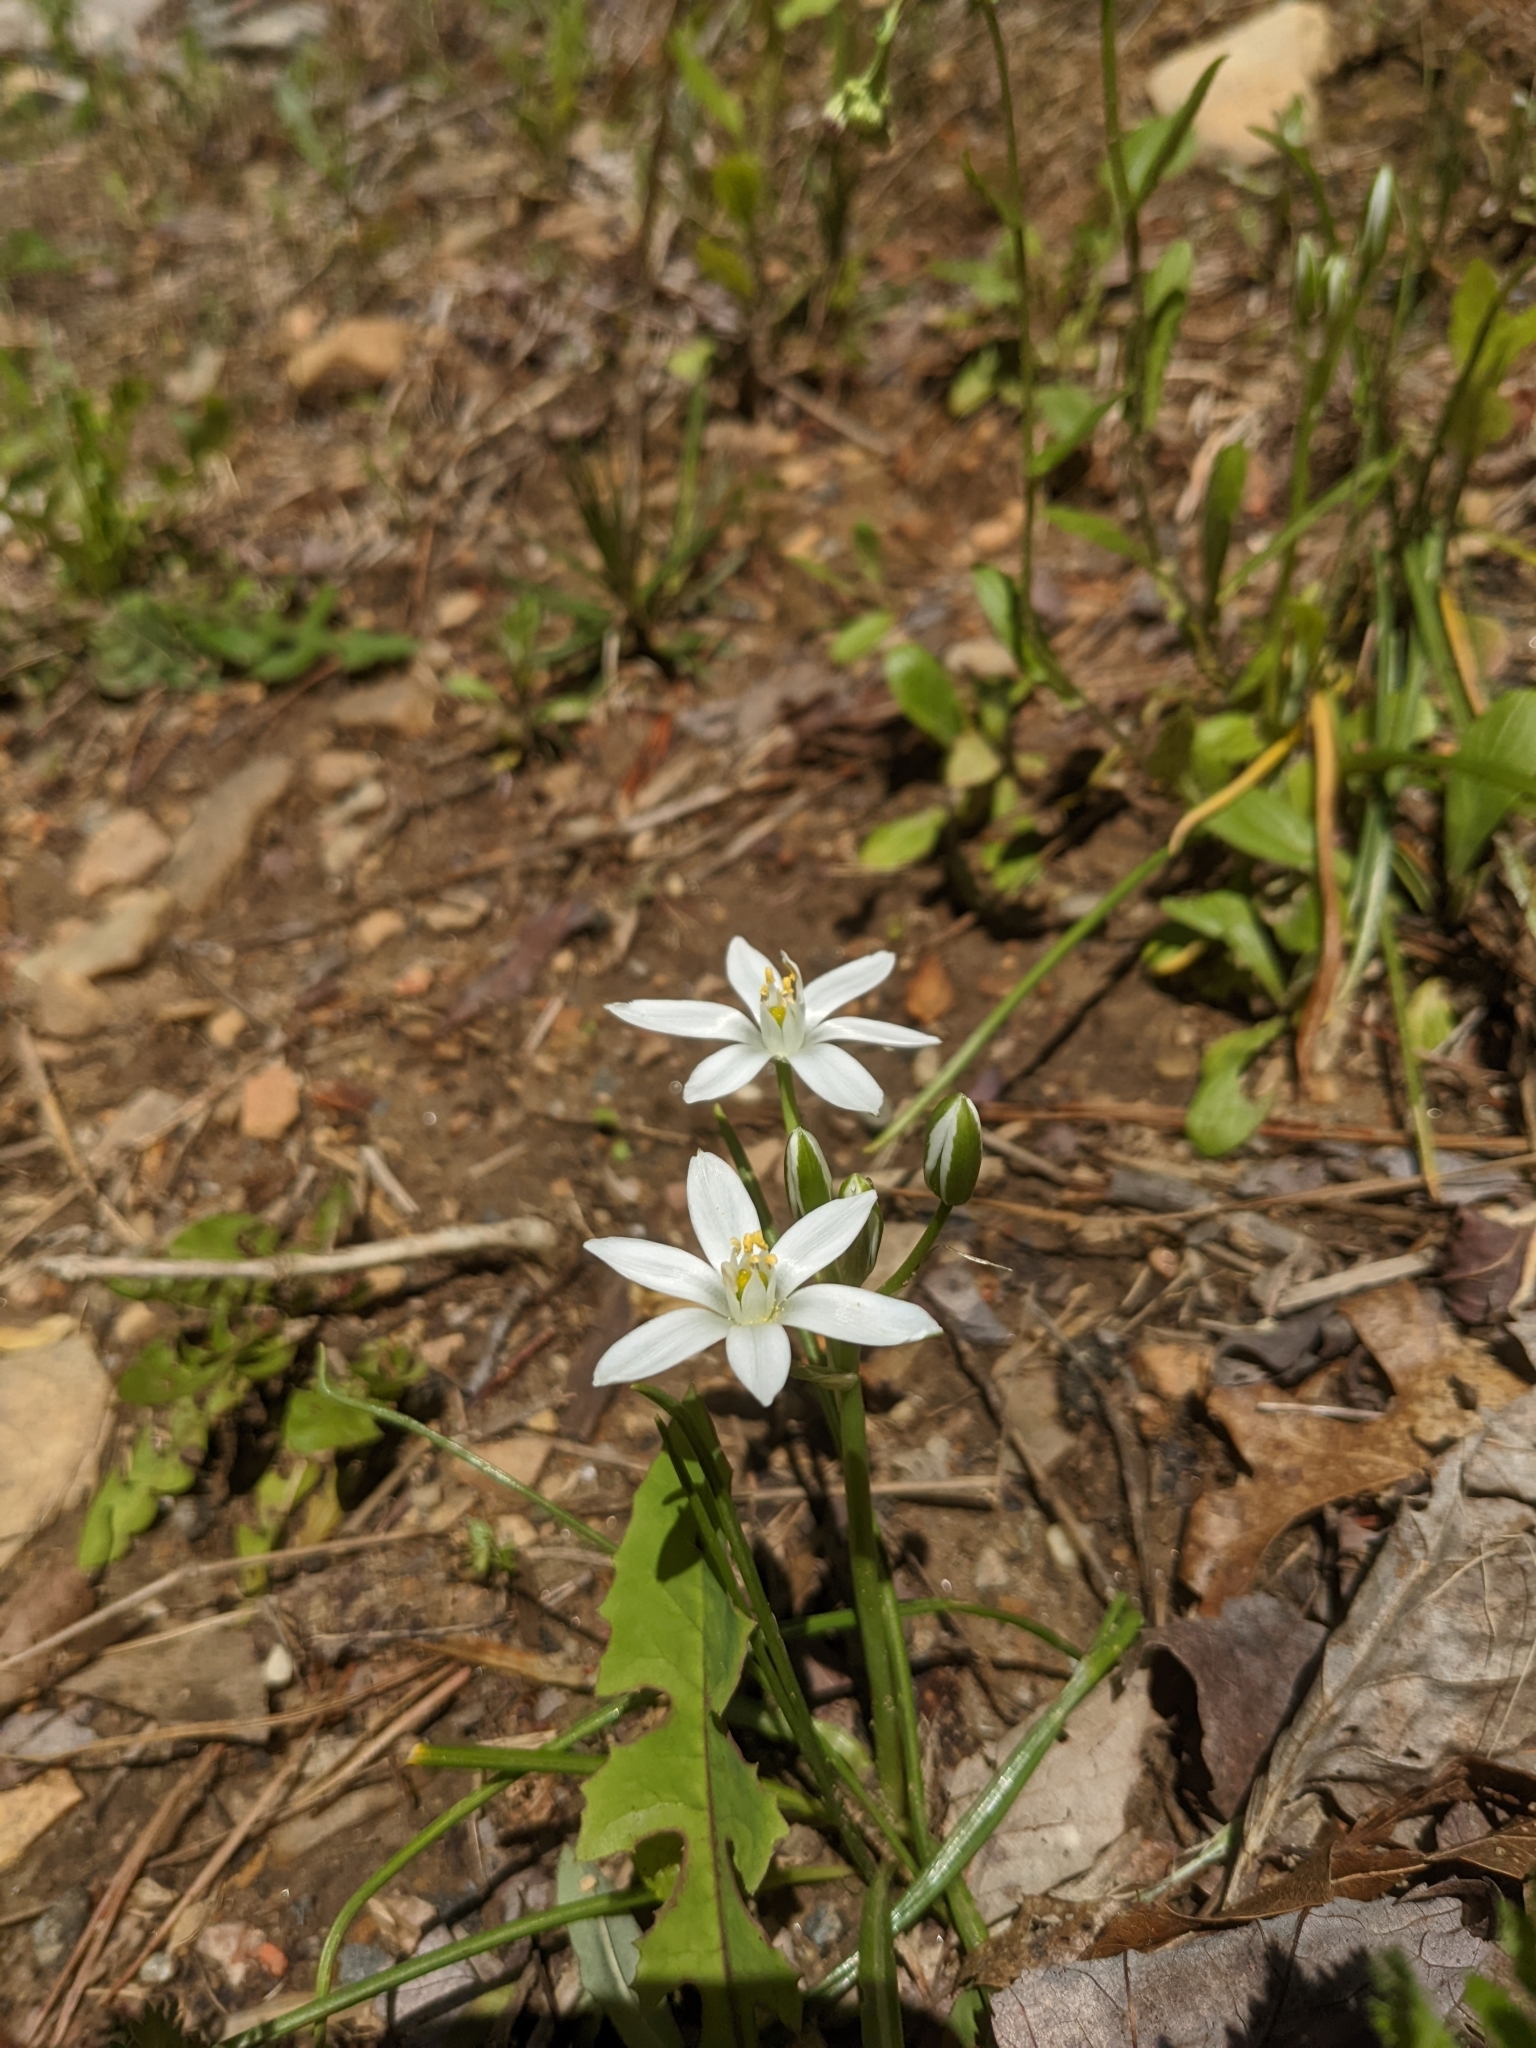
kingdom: Plantae
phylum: Tracheophyta
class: Liliopsida
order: Asparagales
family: Asparagaceae
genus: Ornithogalum
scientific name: Ornithogalum umbellatum
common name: Garden star-of-bethlehem
